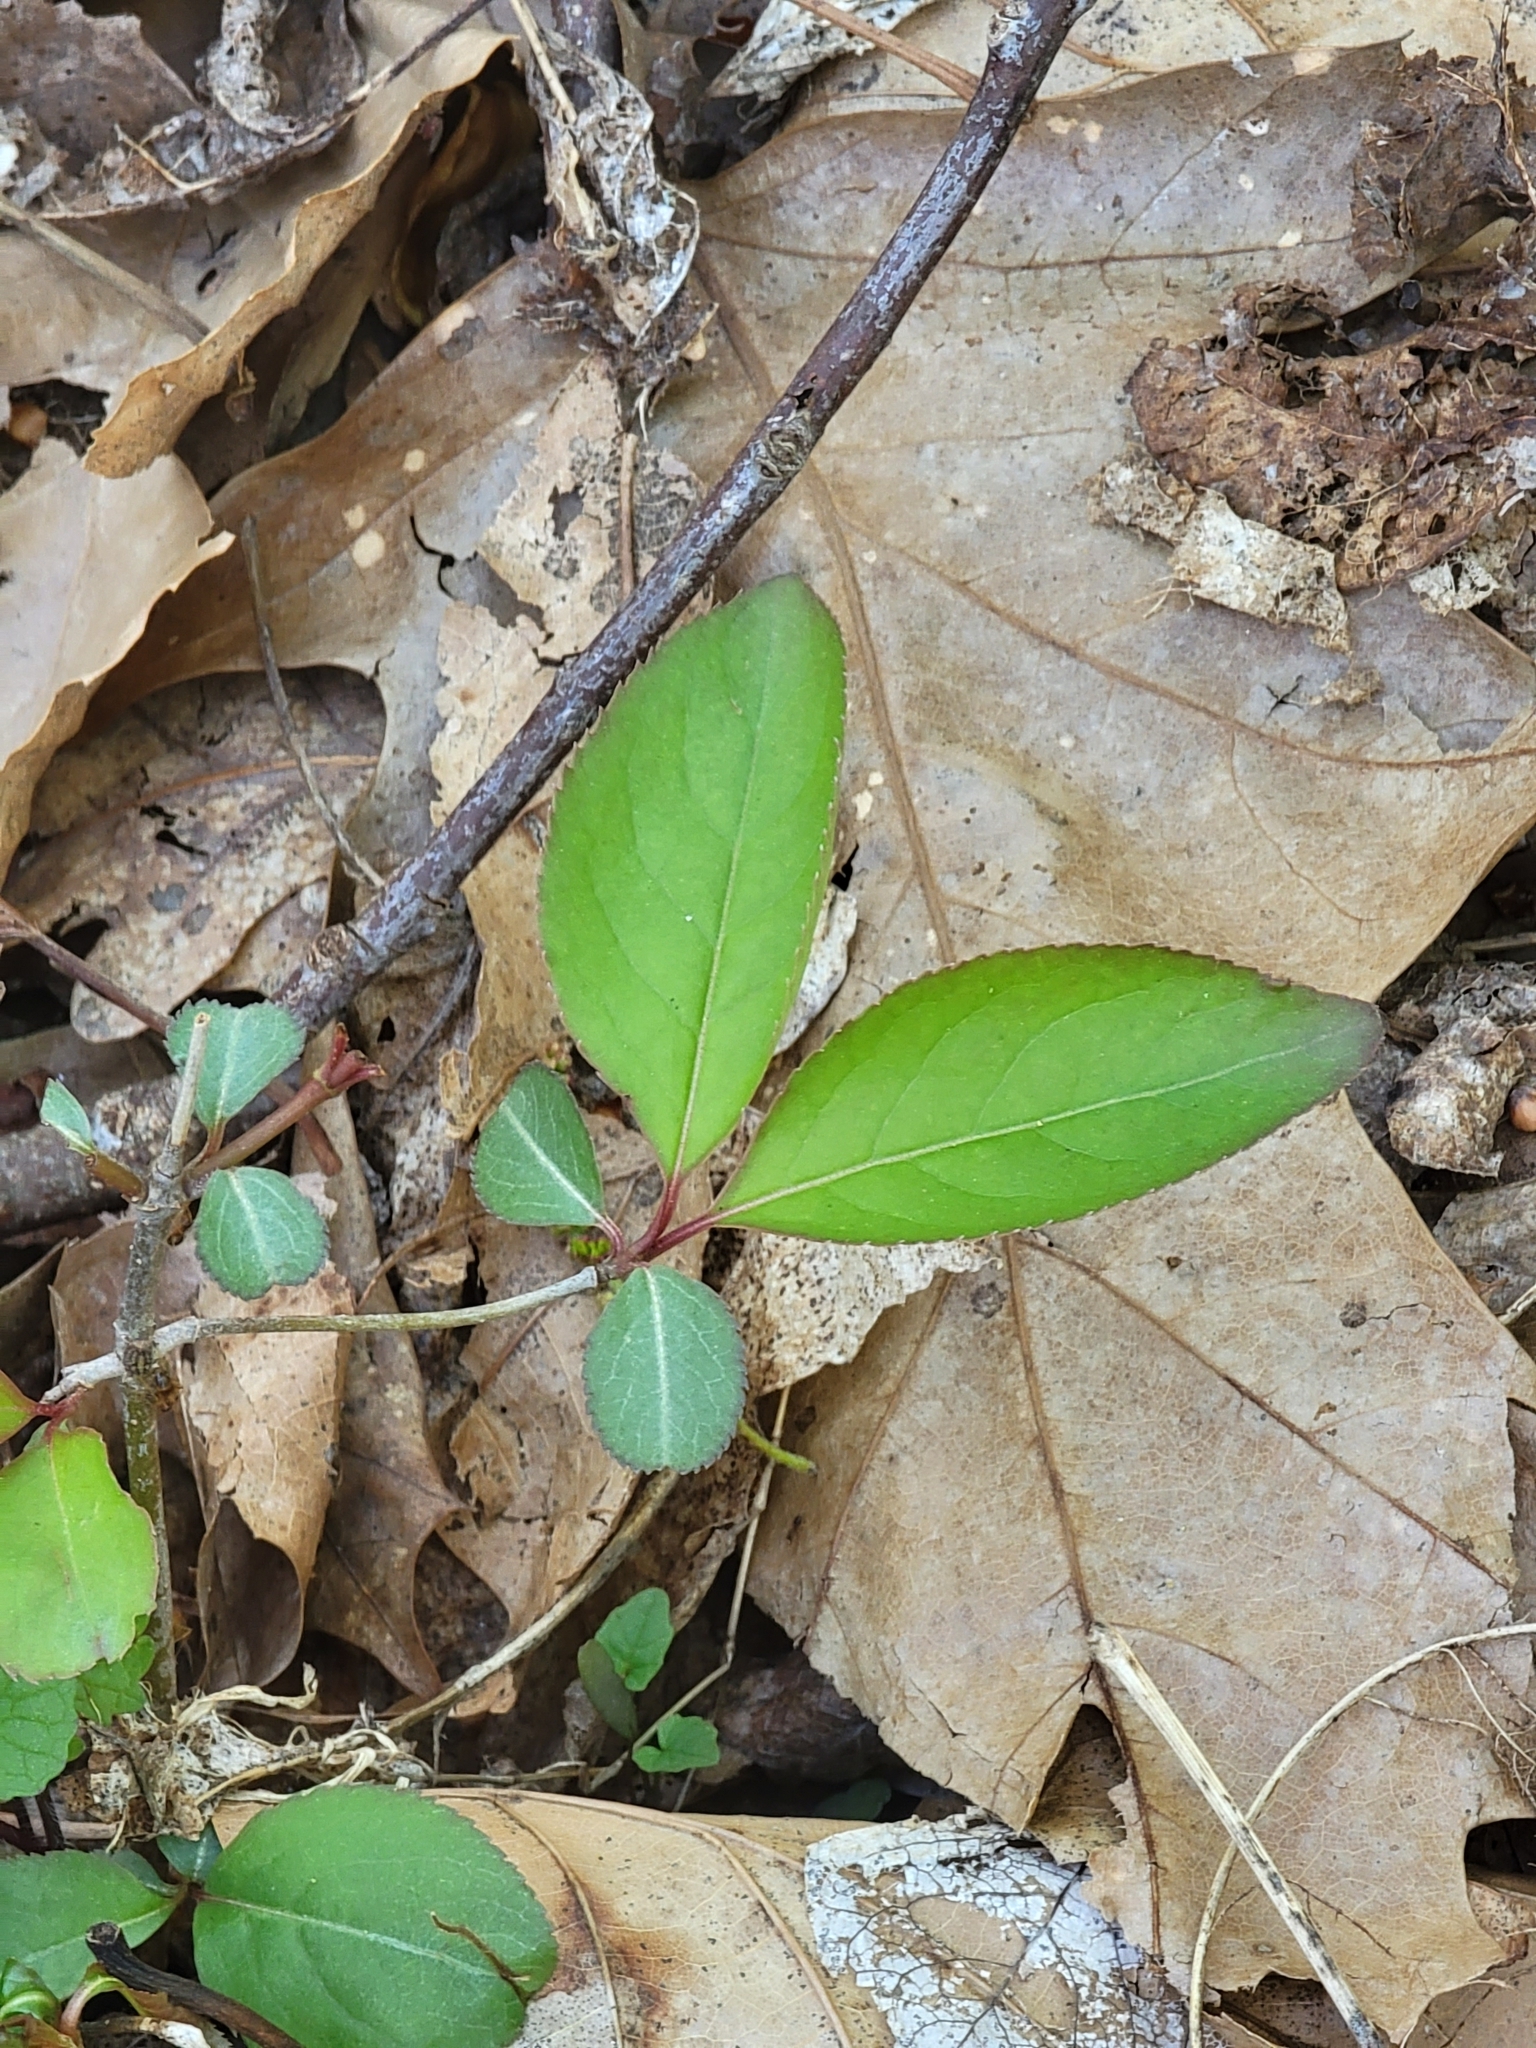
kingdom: Plantae
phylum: Tracheophyta
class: Magnoliopsida
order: Dipsacales
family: Viburnaceae
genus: Viburnum
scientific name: Viburnum prunifolium
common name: Black haw
